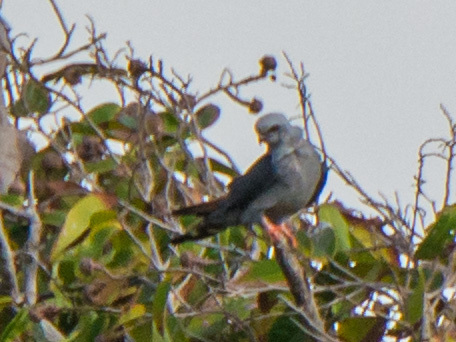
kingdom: Animalia
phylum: Chordata
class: Aves
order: Accipitriformes
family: Accipitridae
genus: Ictinia
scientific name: Ictinia plumbea
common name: Plumbeous kite
